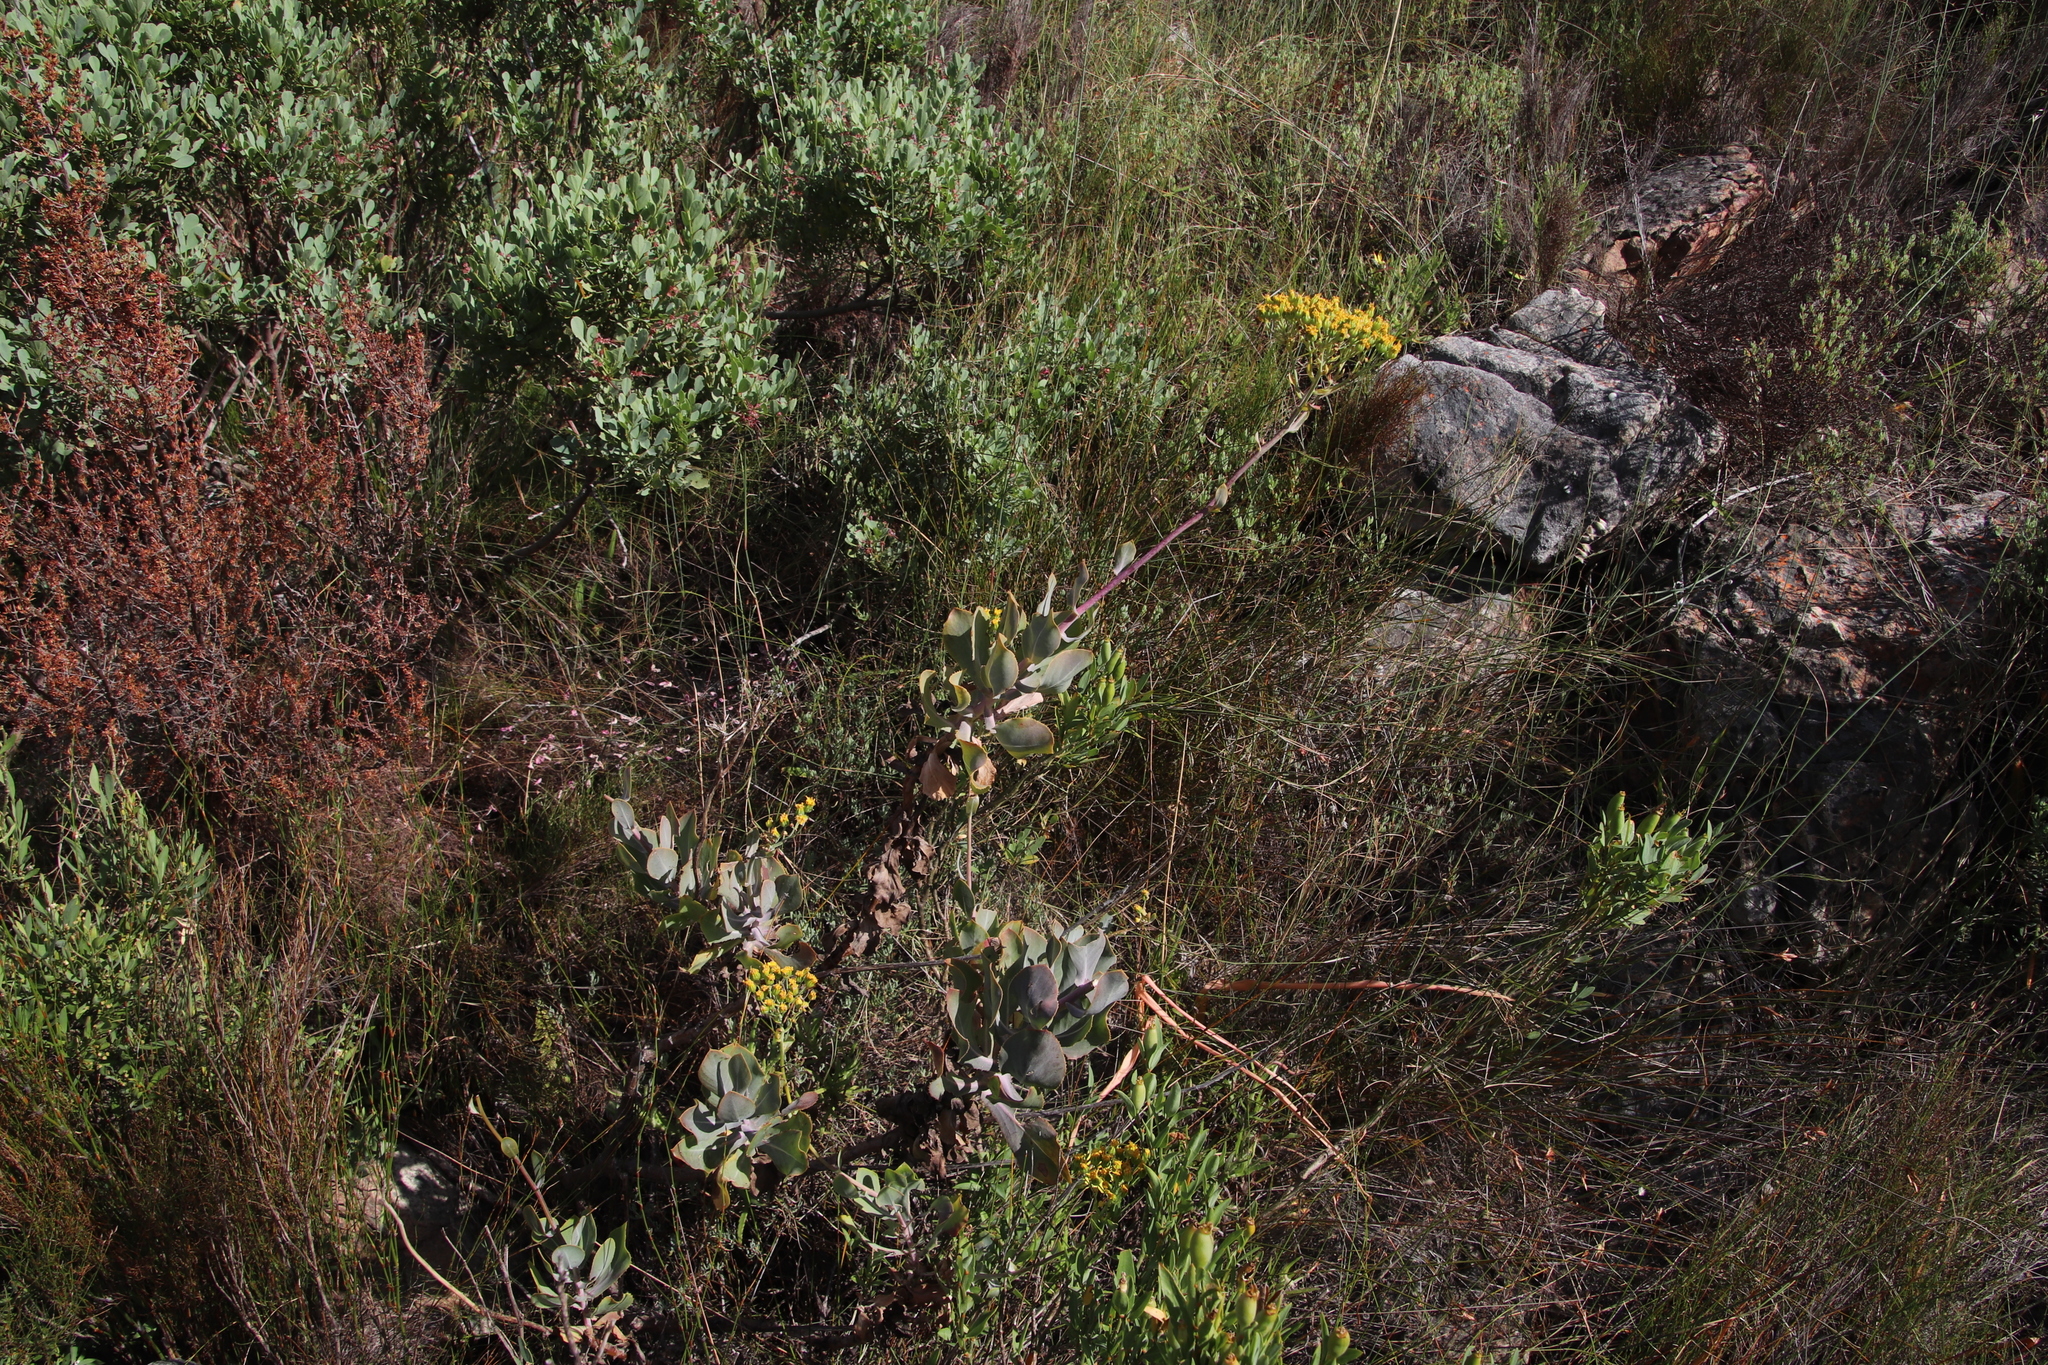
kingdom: Plantae
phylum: Tracheophyta
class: Magnoliopsida
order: Asterales
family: Asteraceae
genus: Othonna
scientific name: Othonna parviflora
